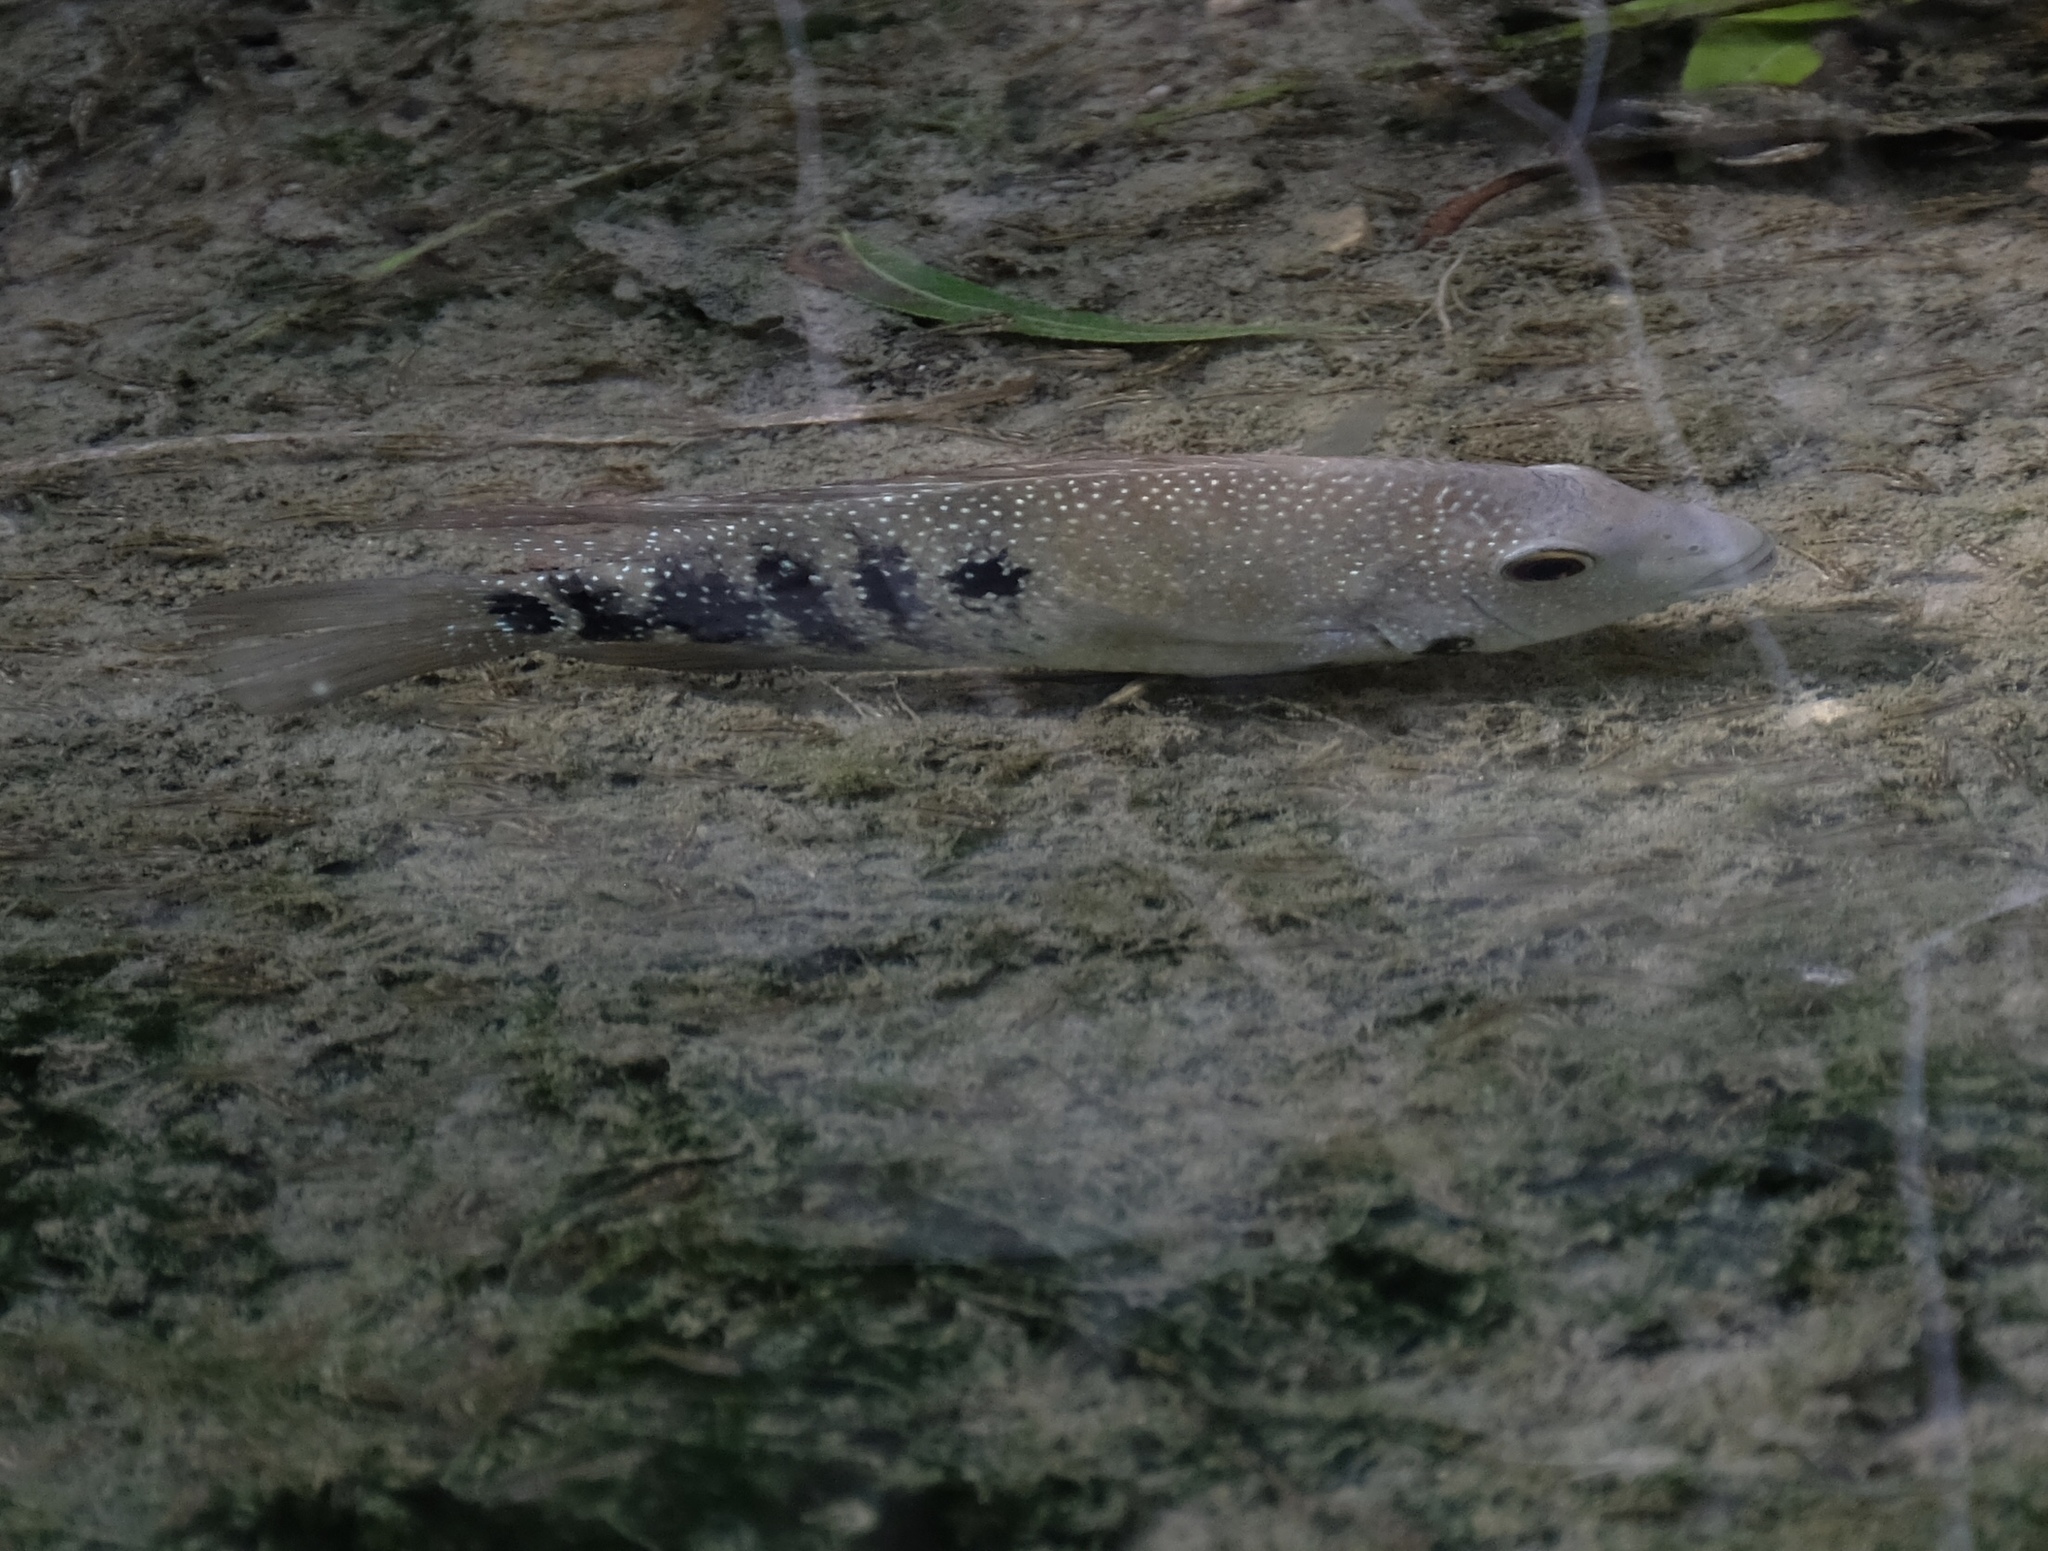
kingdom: Animalia
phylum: Chordata
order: Perciformes
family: Cichlidae
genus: Herichthys
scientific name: Herichthys cyanoguttatus
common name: Rio grande cichlid
